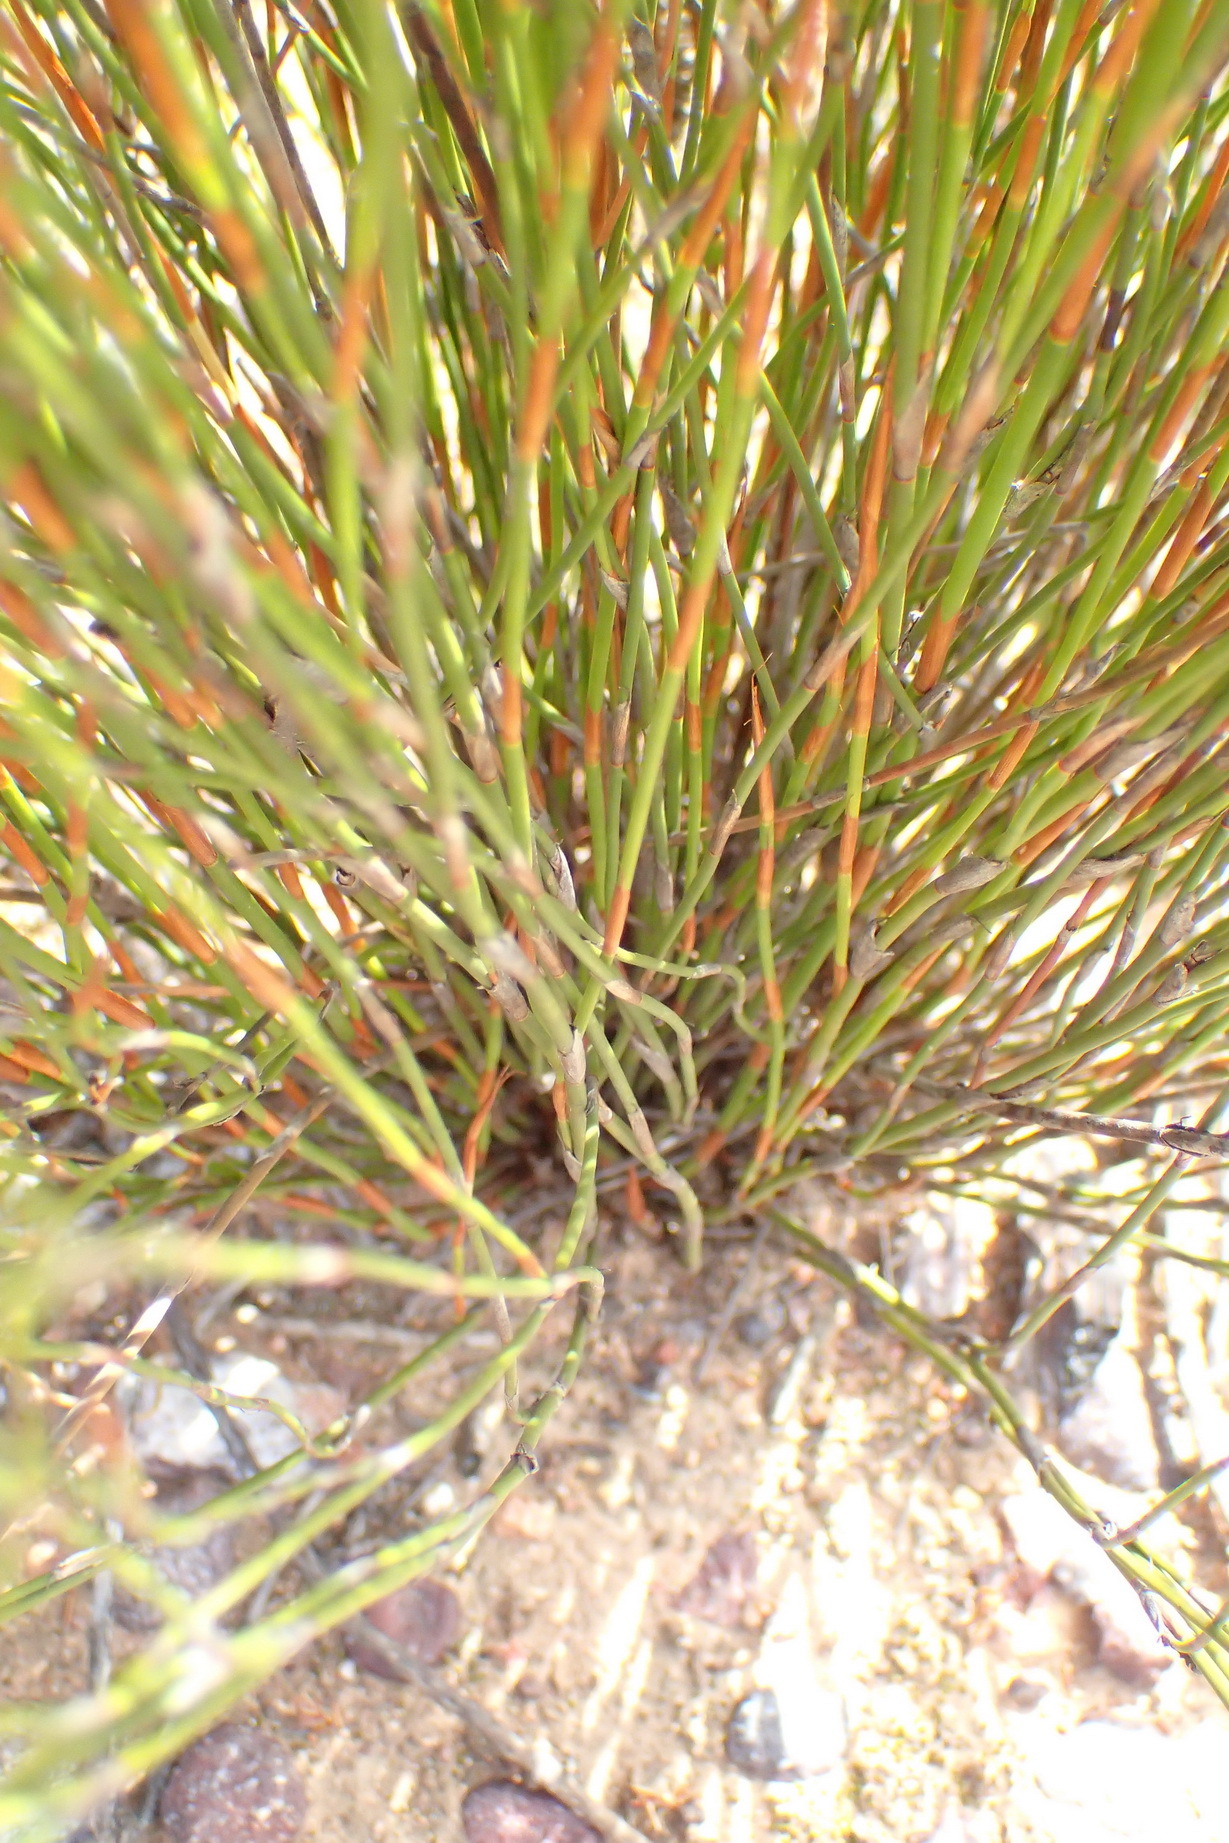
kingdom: Plantae
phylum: Tracheophyta
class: Liliopsida
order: Poales
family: Restionaceae
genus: Restio
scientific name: Restio andreaeanus
